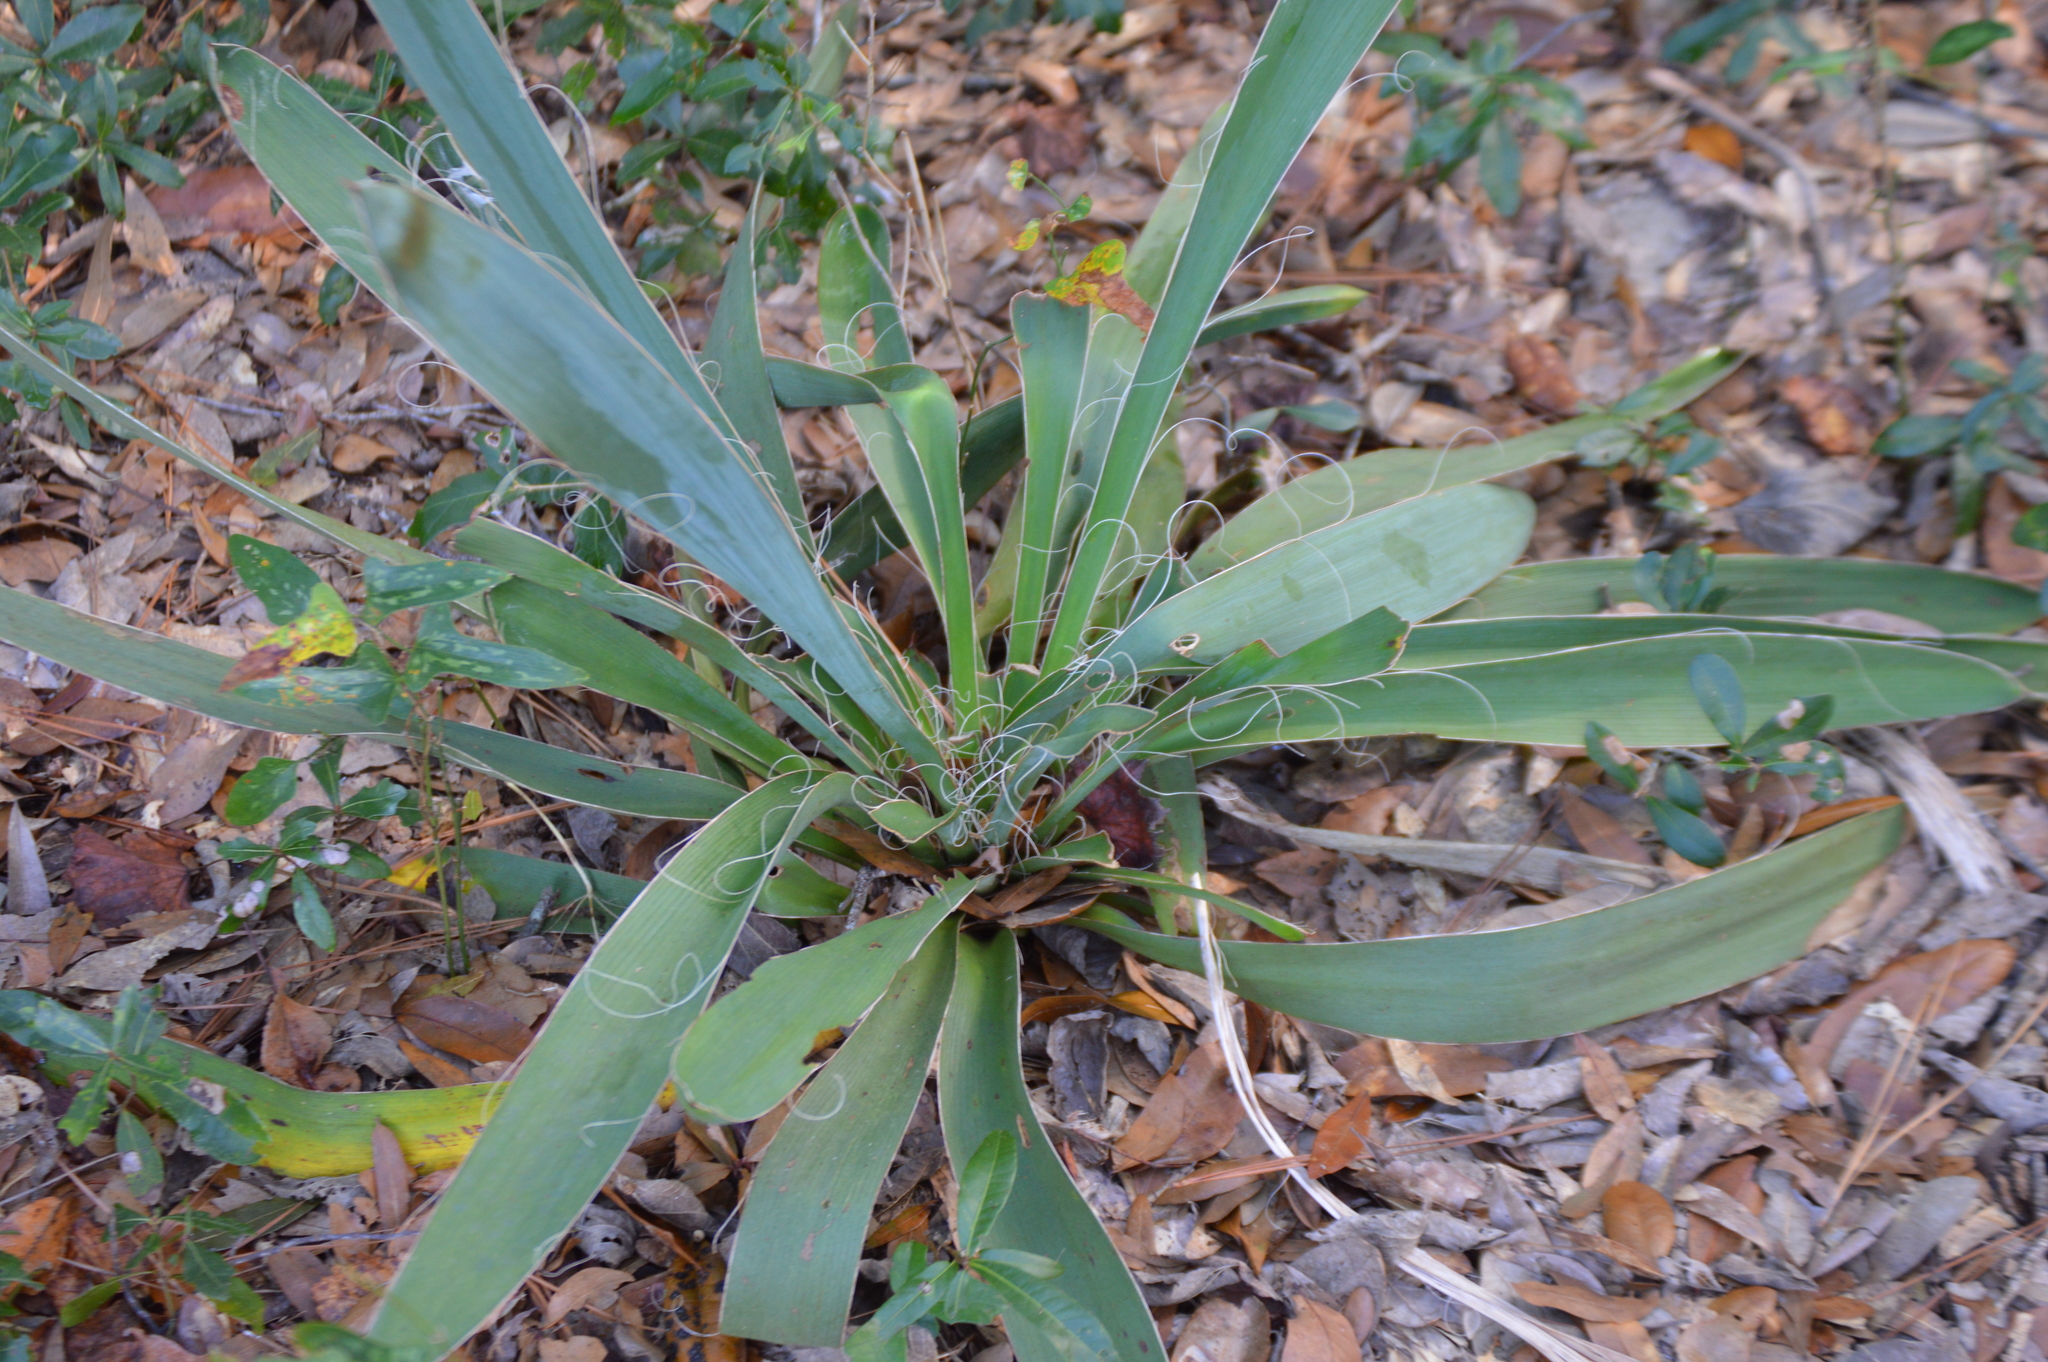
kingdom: Plantae
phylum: Tracheophyta
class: Liliopsida
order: Asparagales
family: Asparagaceae
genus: Yucca
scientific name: Yucca filamentosa
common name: Adam's-needle
